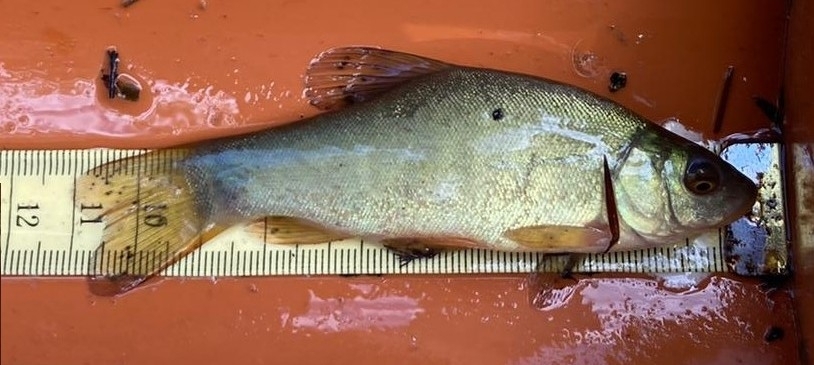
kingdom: Animalia
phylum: Chordata
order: Cypriniformes
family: Cyprinidae
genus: Tinca
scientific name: Tinca tinca
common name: Tench
